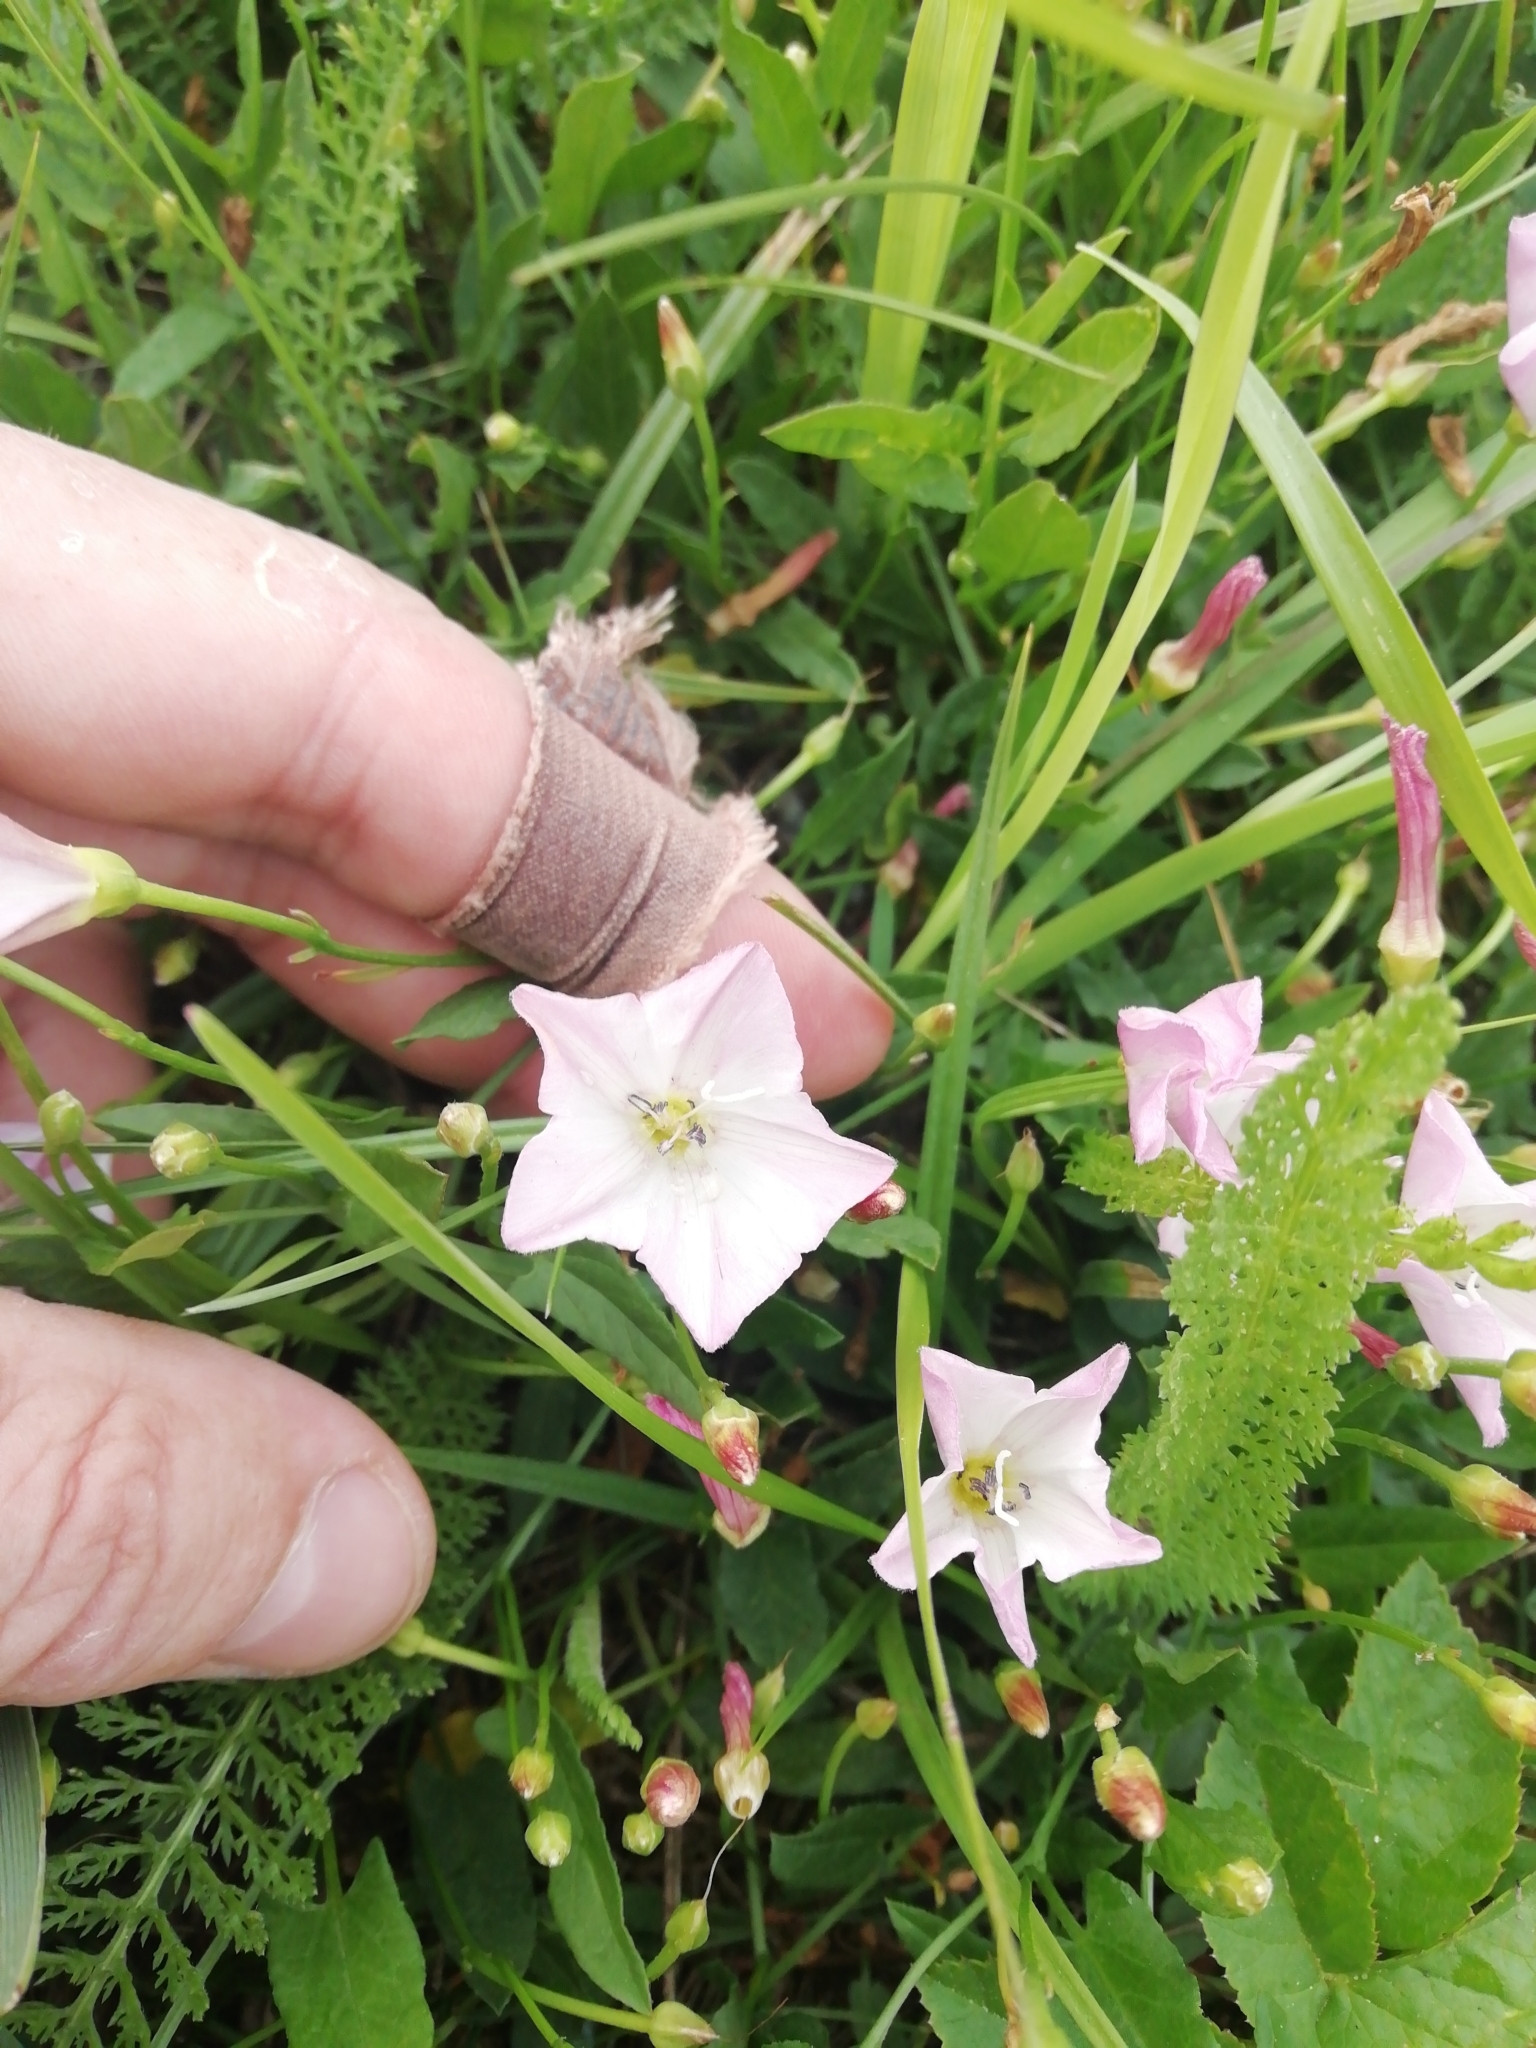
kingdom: Plantae
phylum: Tracheophyta
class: Magnoliopsida
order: Solanales
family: Convolvulaceae
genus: Convolvulus
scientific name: Convolvulus arvensis
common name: Field bindweed
